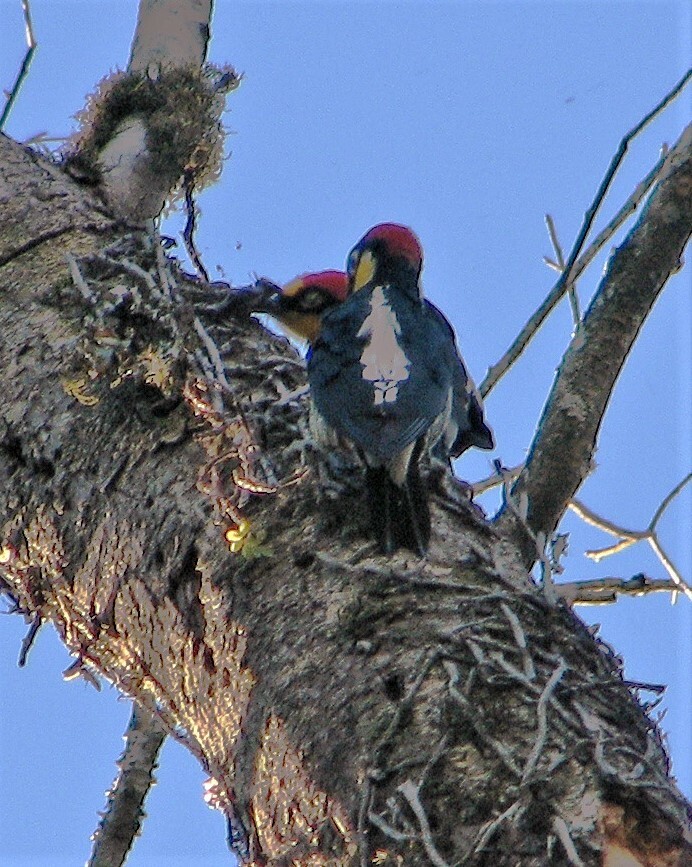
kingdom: Animalia
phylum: Chordata
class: Aves
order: Piciformes
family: Picidae
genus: Melanerpes
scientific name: Melanerpes flavifrons
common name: Yellow-fronted woodpecker
